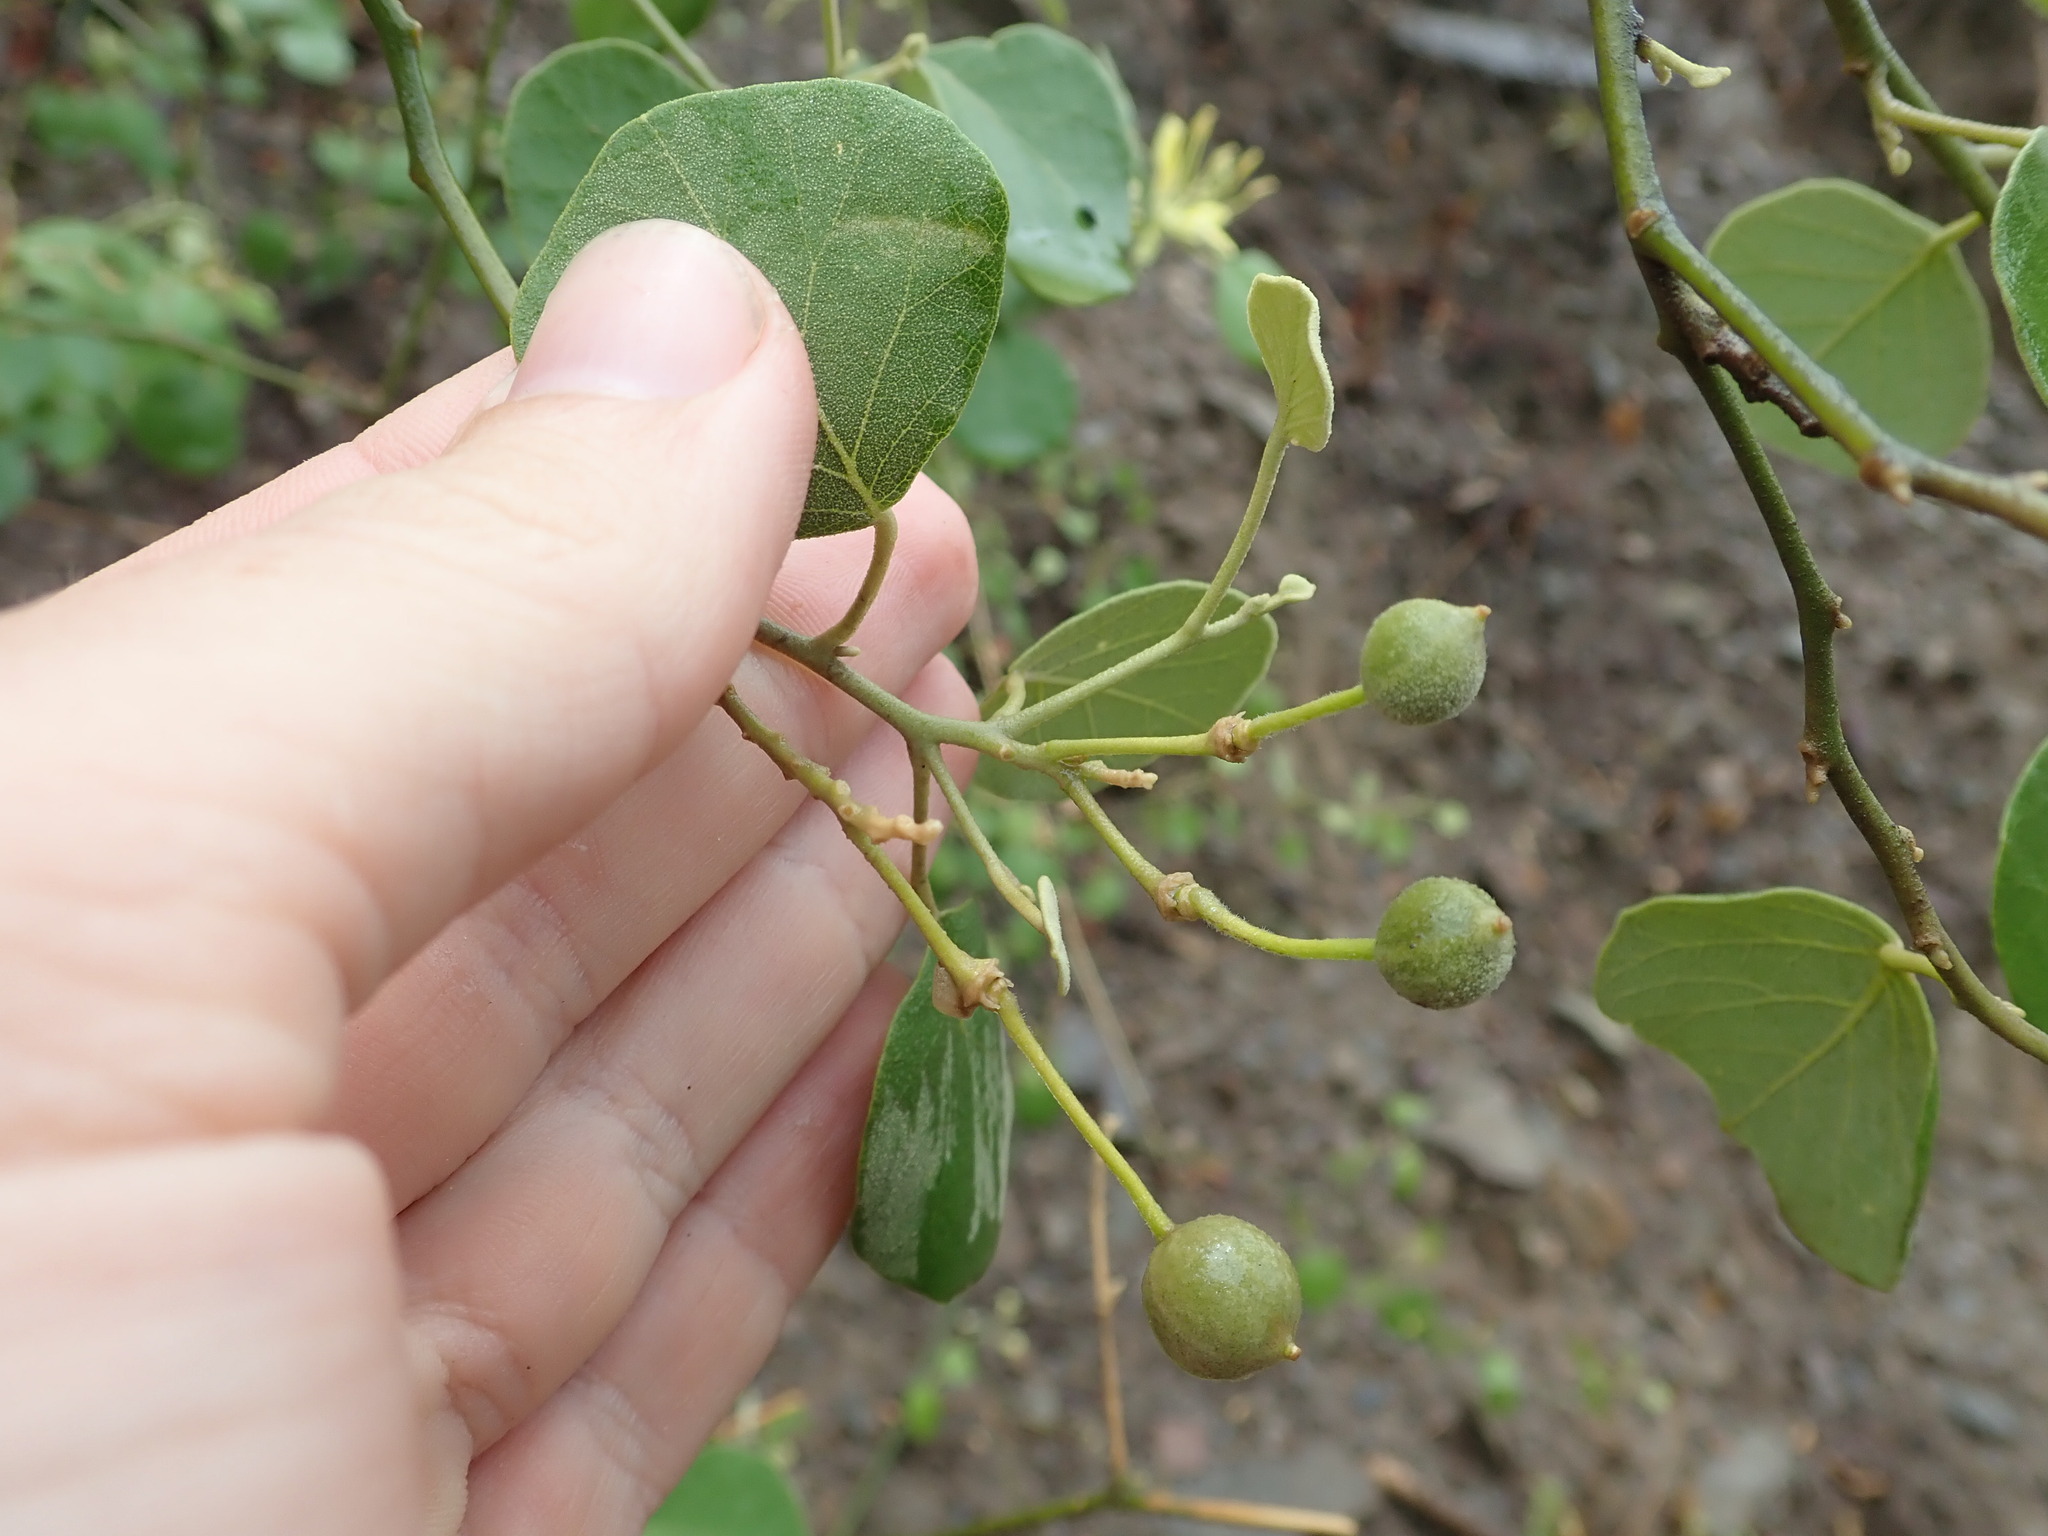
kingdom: Plantae
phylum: Tracheophyta
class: Magnoliopsida
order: Brassicales
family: Capparaceae
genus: Capparicordis
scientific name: Capparicordis tweedieana
